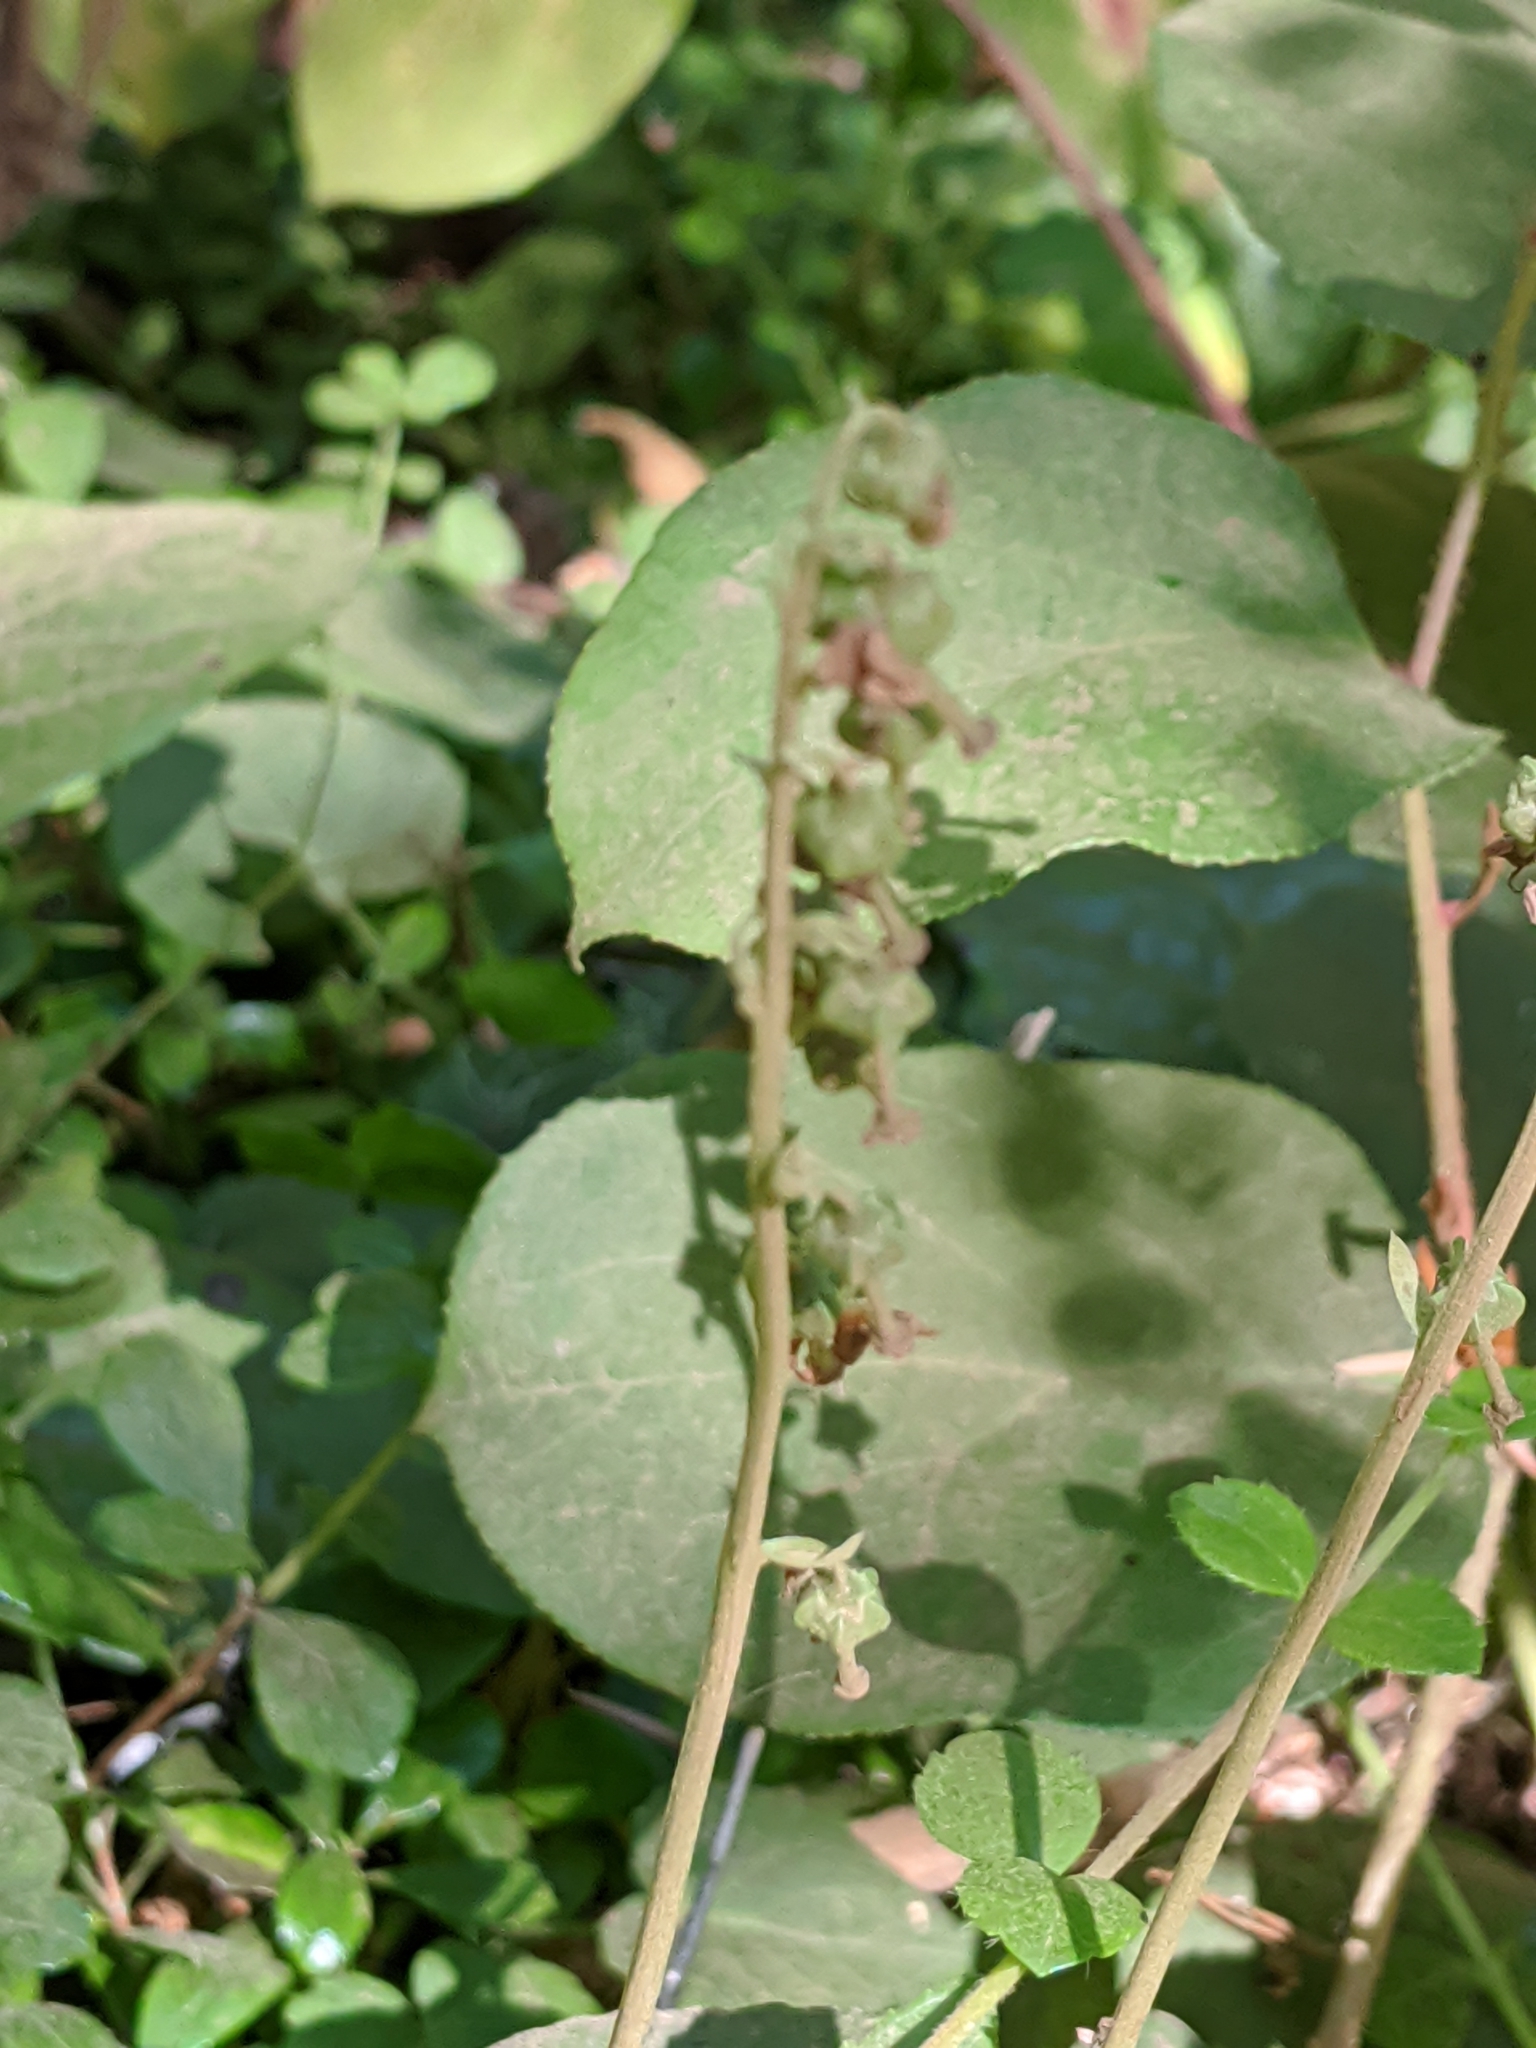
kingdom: Plantae
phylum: Tracheophyta
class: Magnoliopsida
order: Ericales
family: Ericaceae
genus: Orthilia
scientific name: Orthilia secunda
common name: One-sided orthilia
